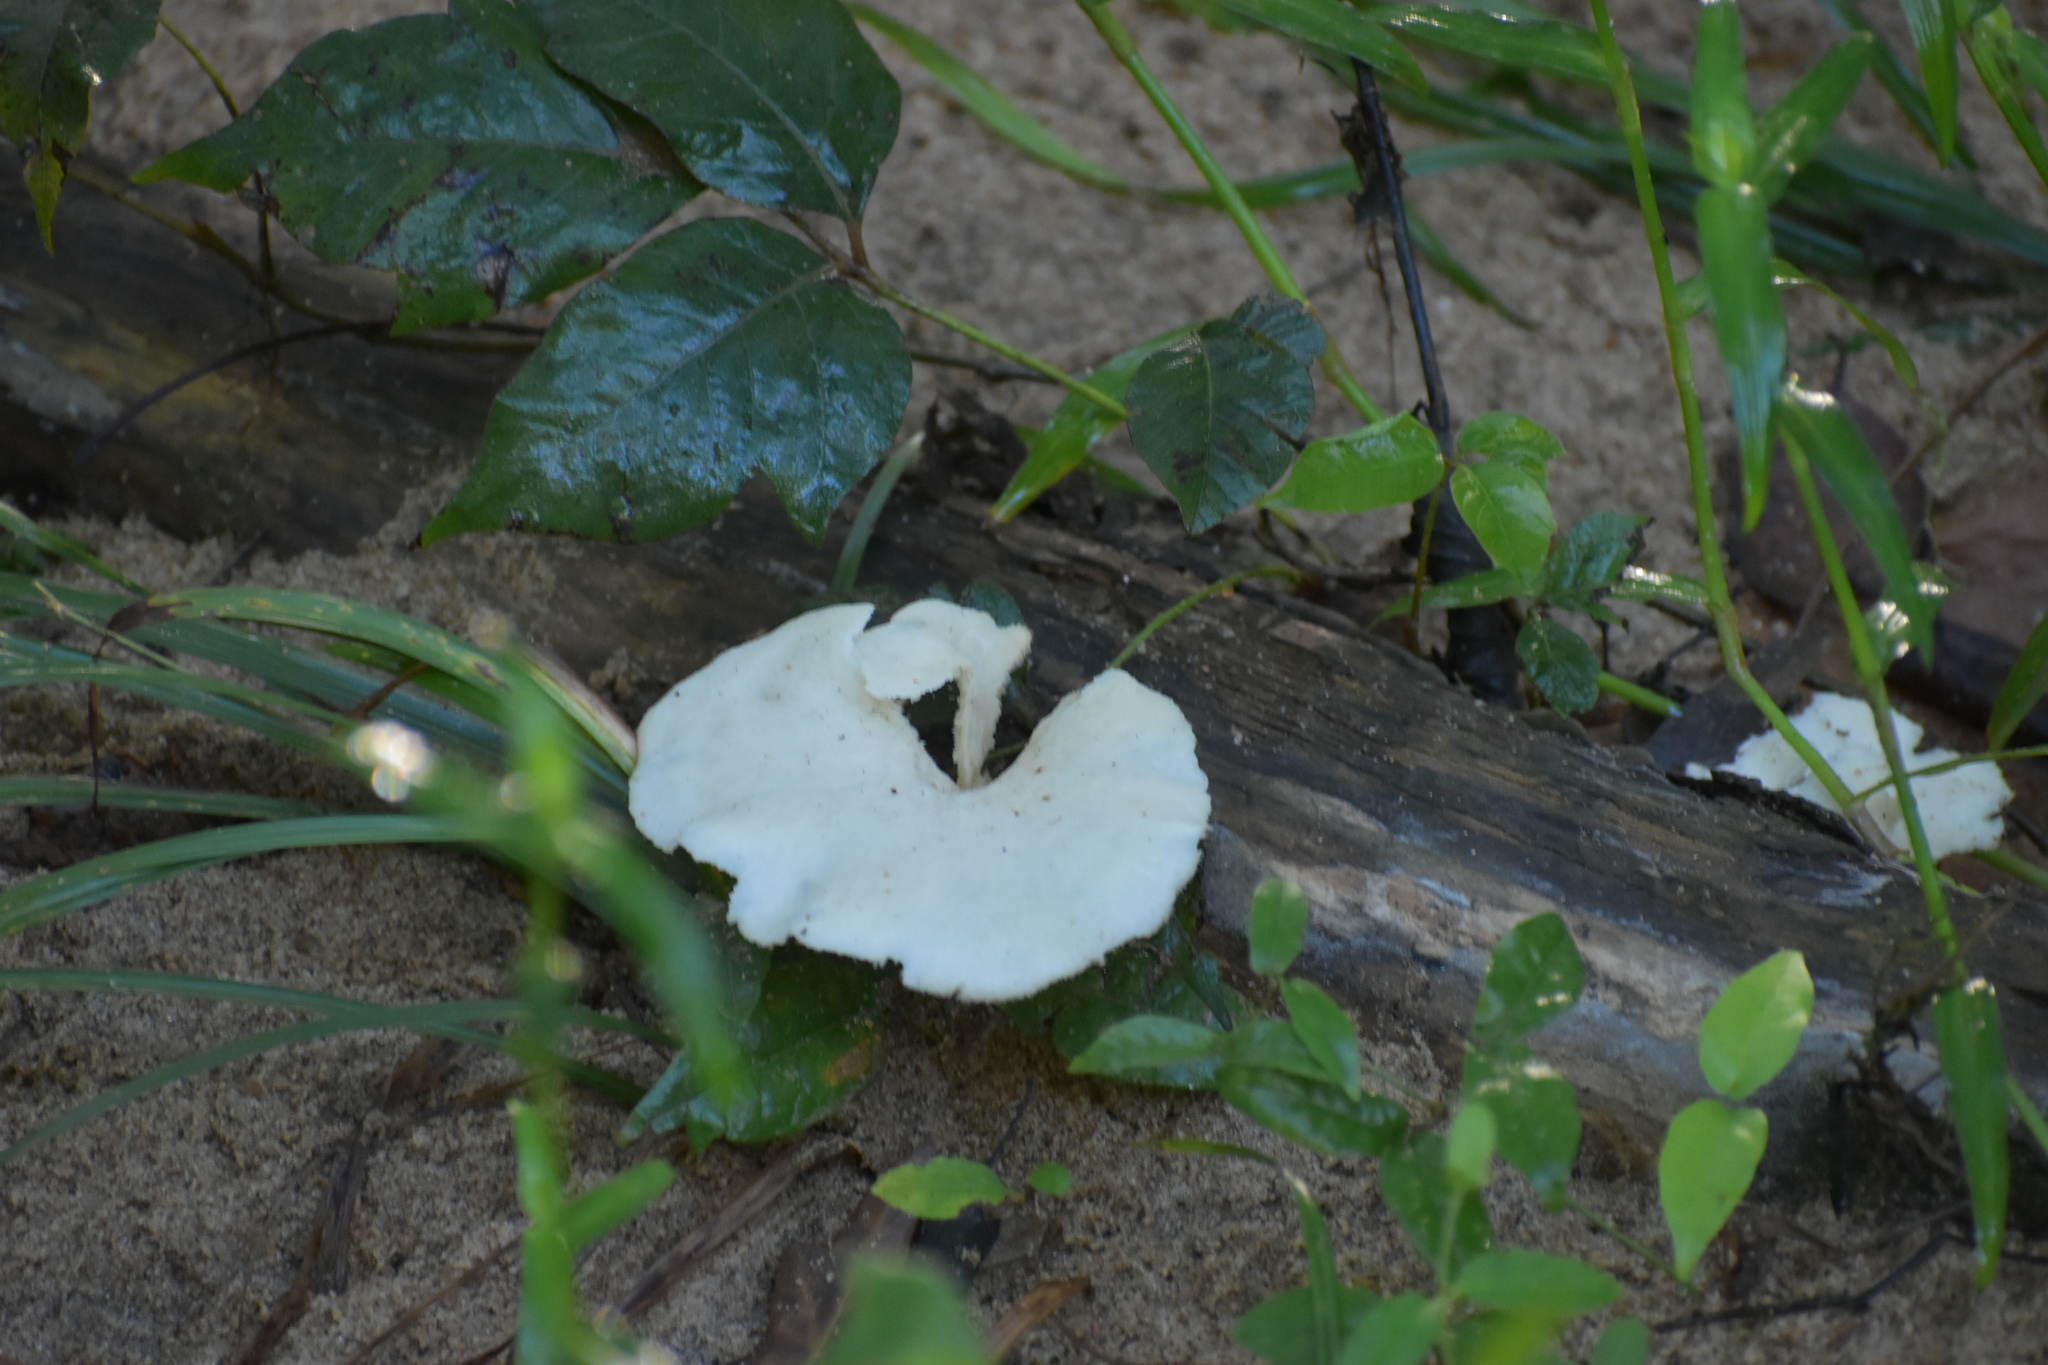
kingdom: Fungi
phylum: Basidiomycota
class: Agaricomycetes
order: Polyporales
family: Polyporaceae
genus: Favolus
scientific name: Favolus tenuiculus
